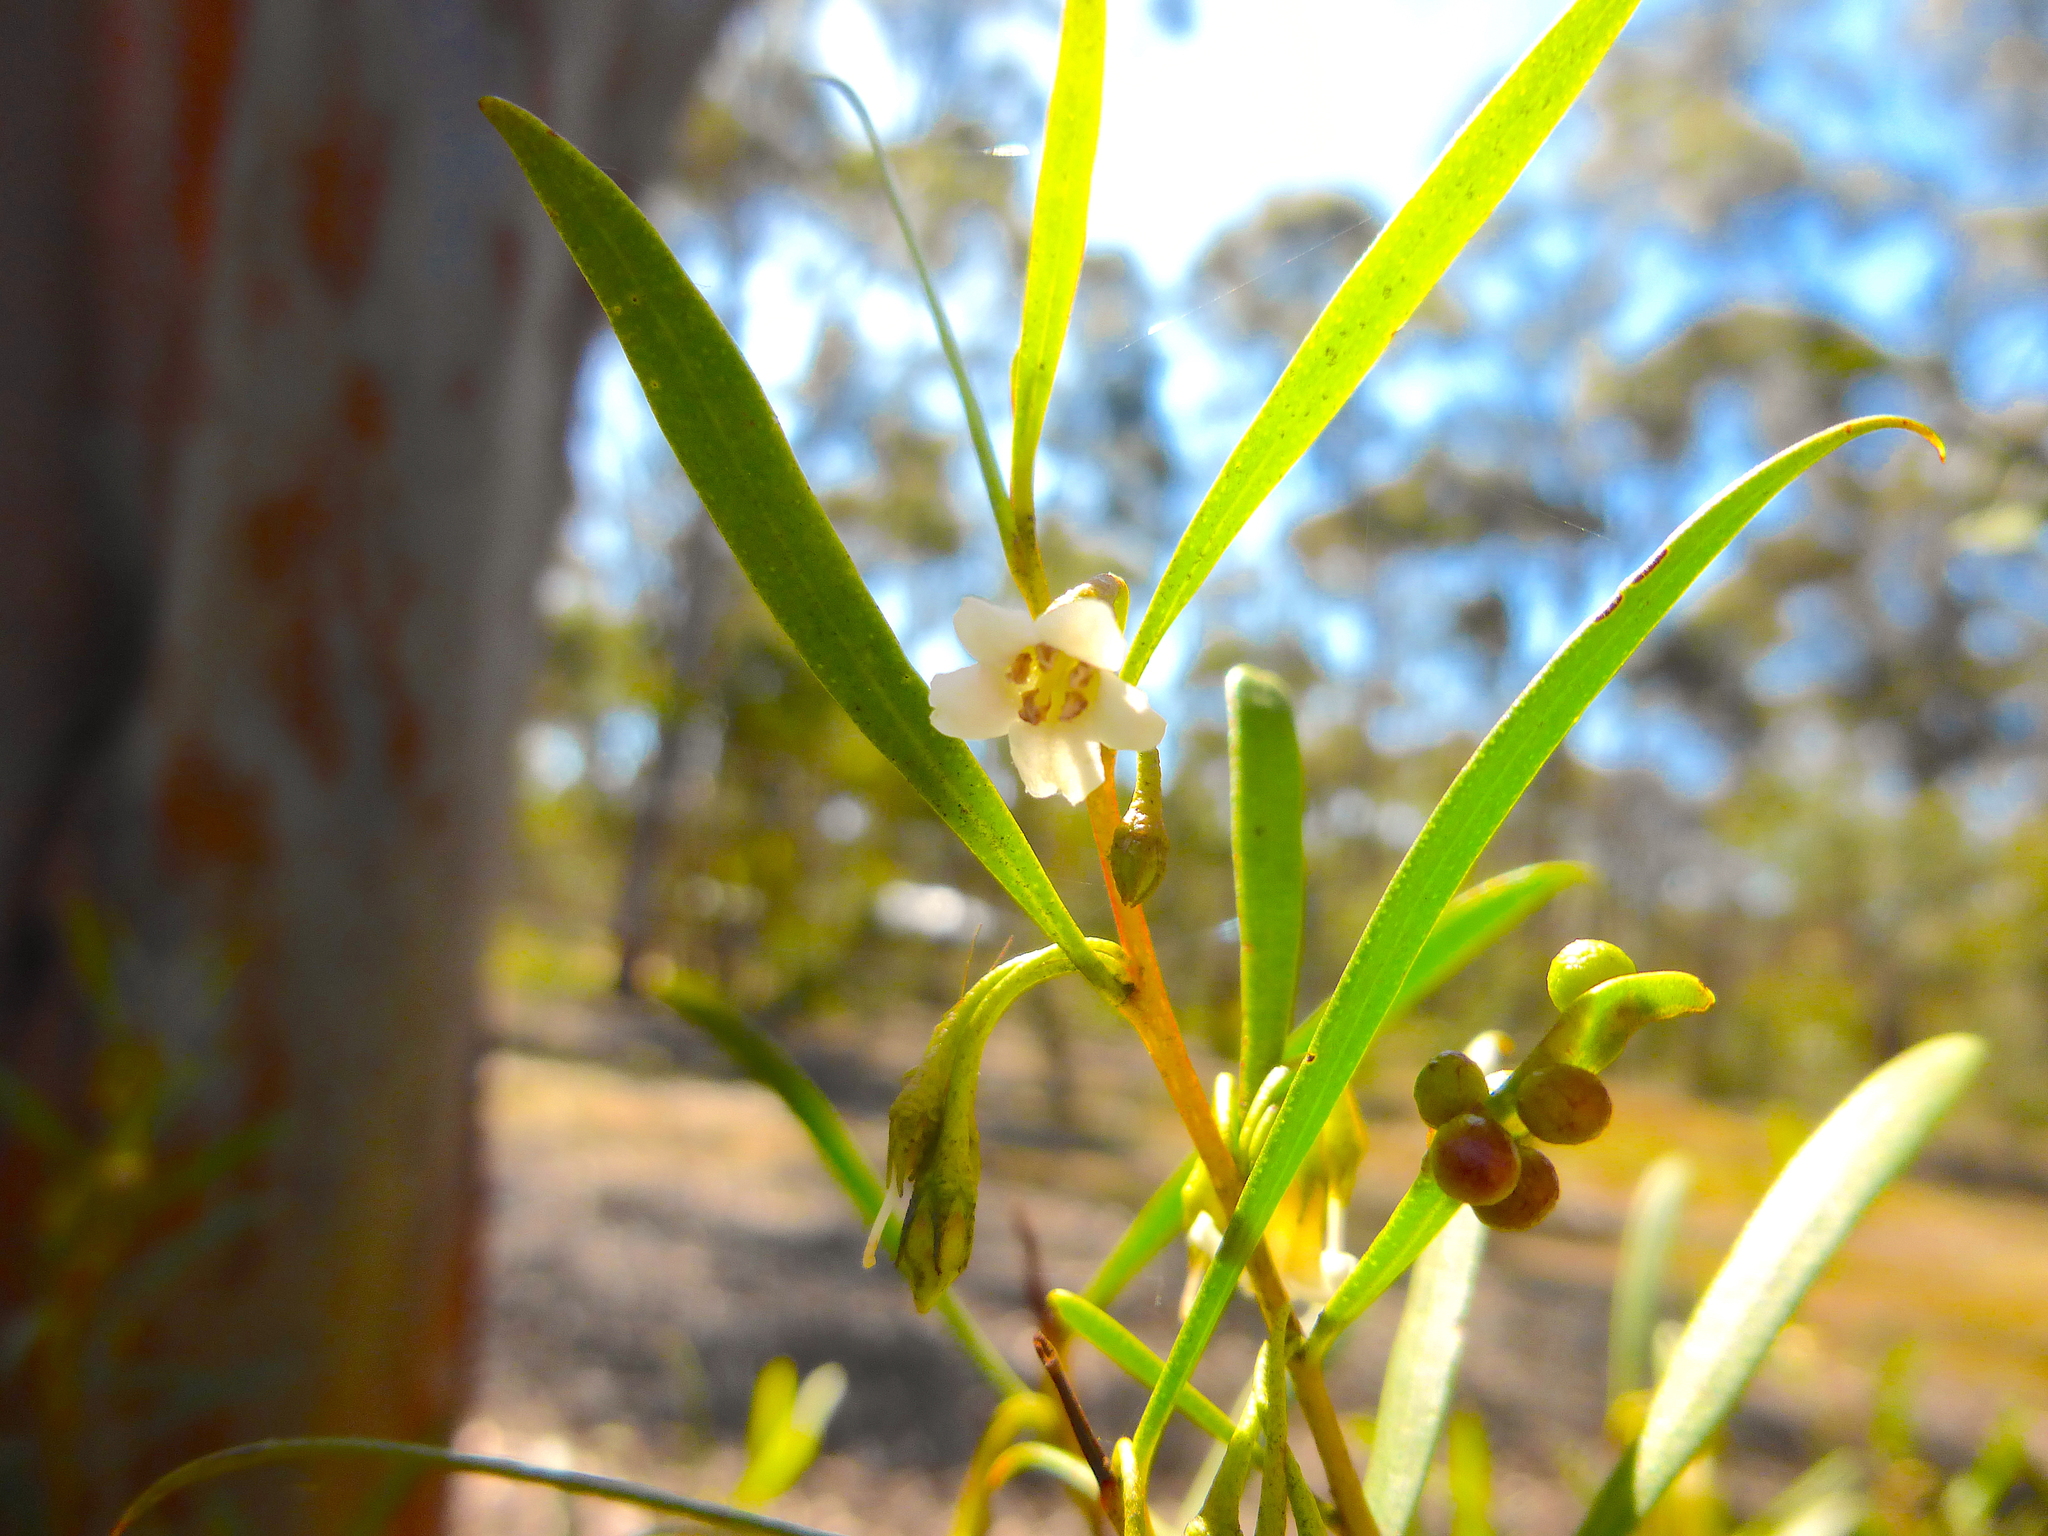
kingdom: Plantae
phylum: Tracheophyta
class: Magnoliopsida
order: Lamiales
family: Scrophulariaceae
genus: Eremophila
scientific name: Eremophila deserti
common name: Ellangowan-poisonbush
